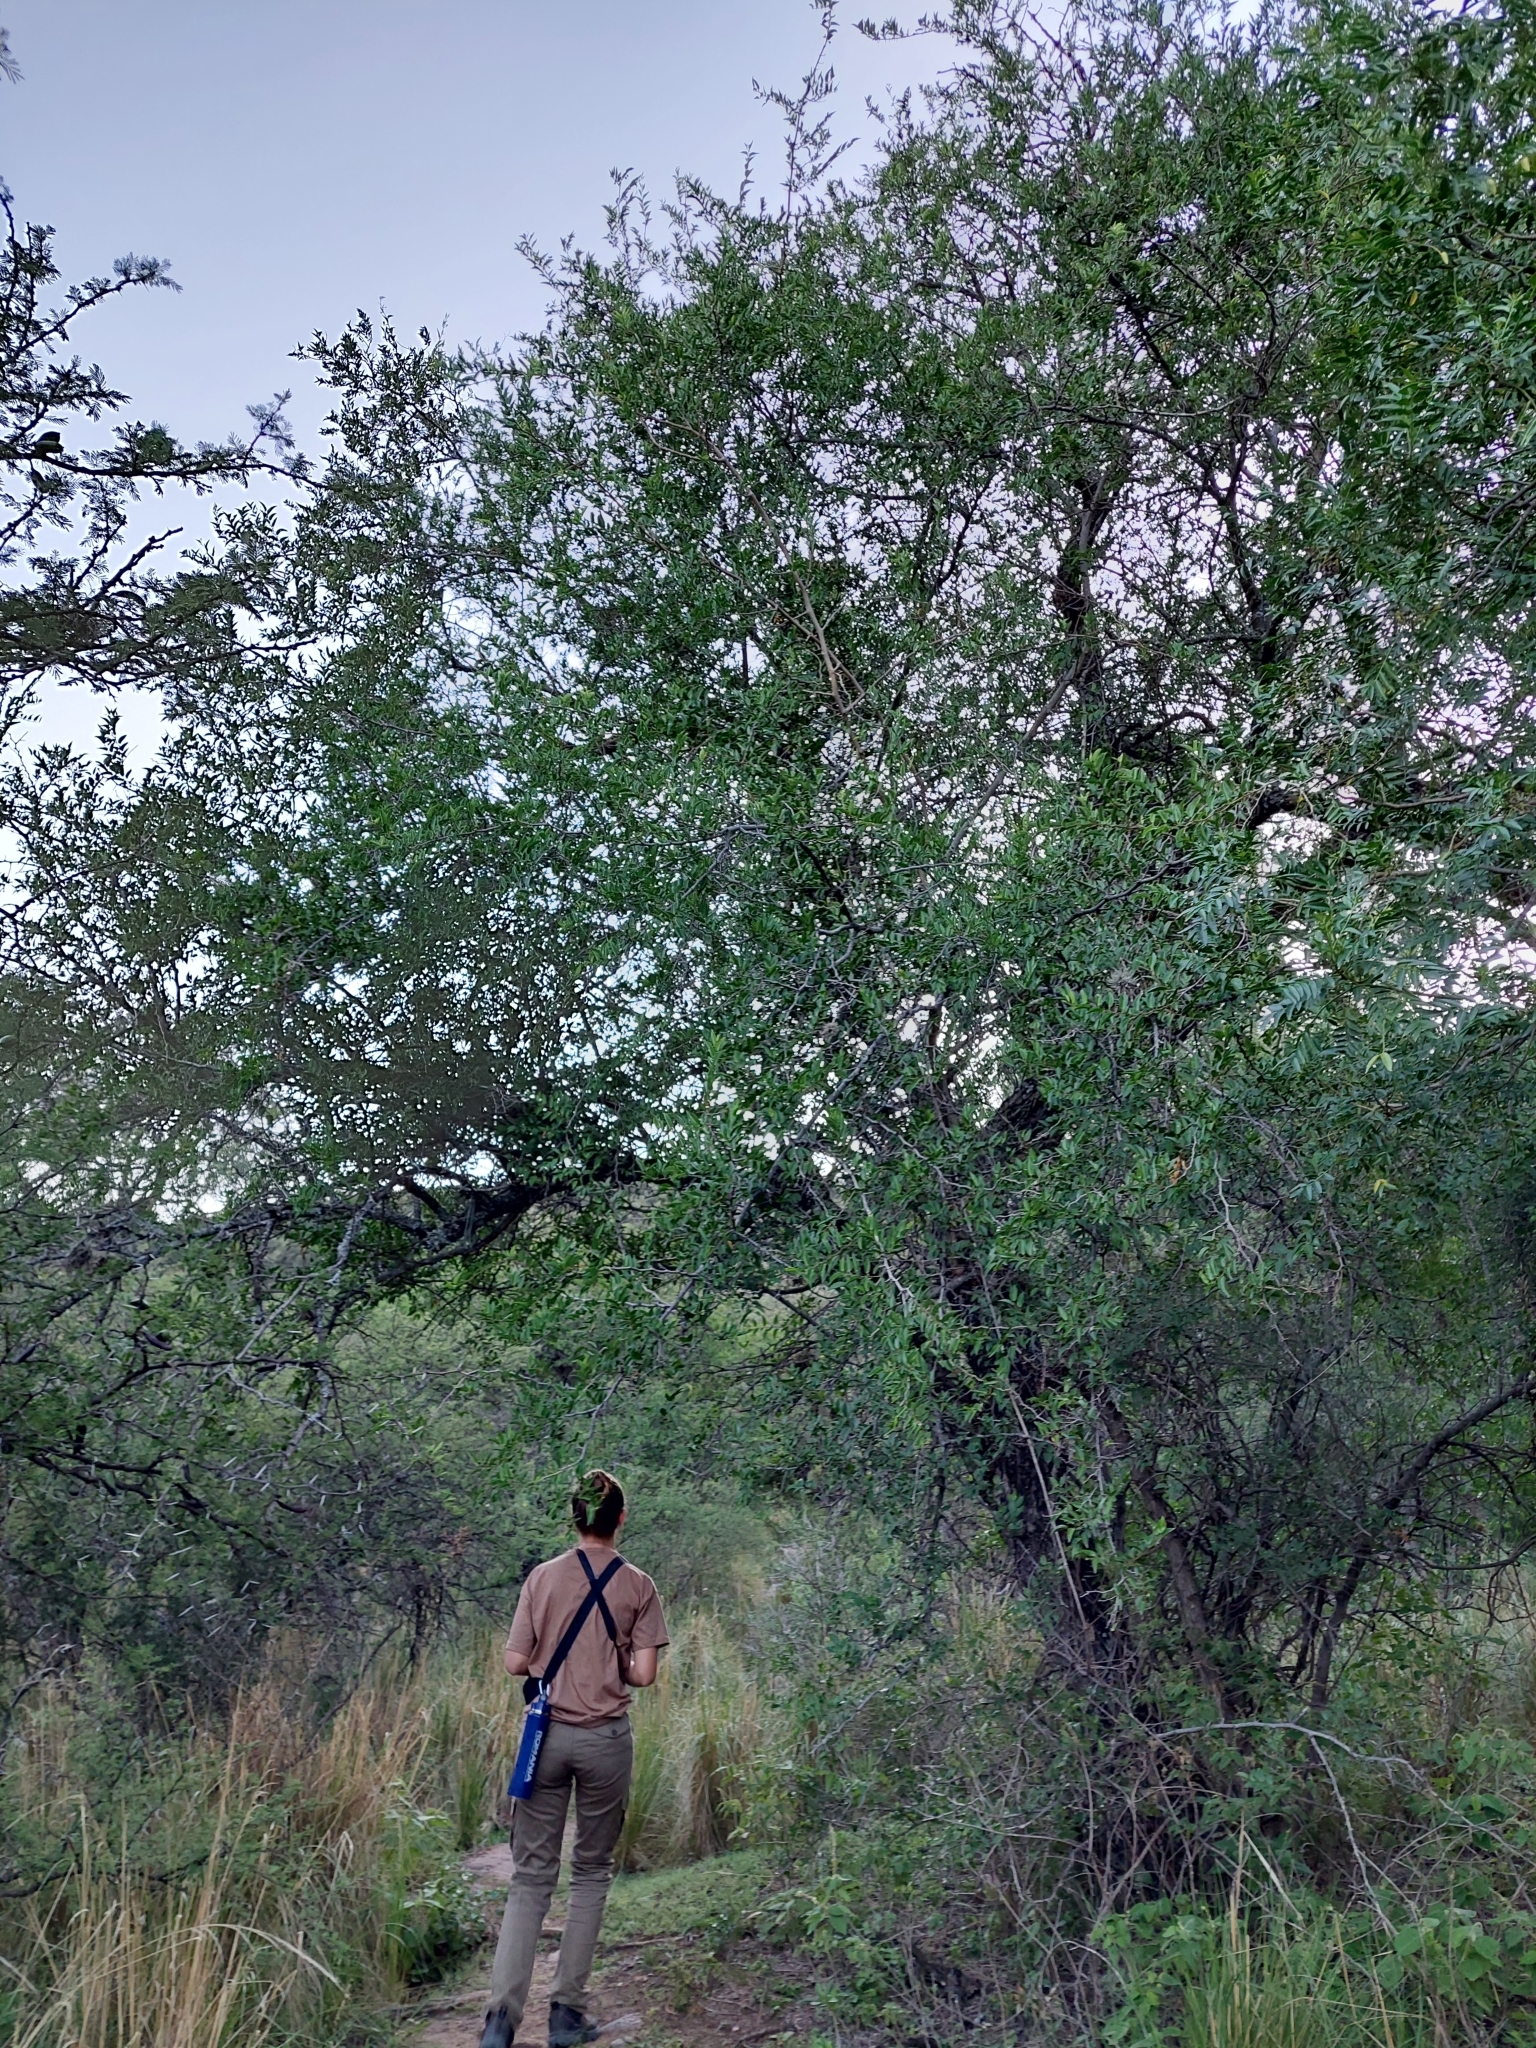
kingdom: Plantae
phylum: Tracheophyta
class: Magnoliopsida
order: Rosales
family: Cannabaceae
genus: Celtis
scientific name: Celtis tala
